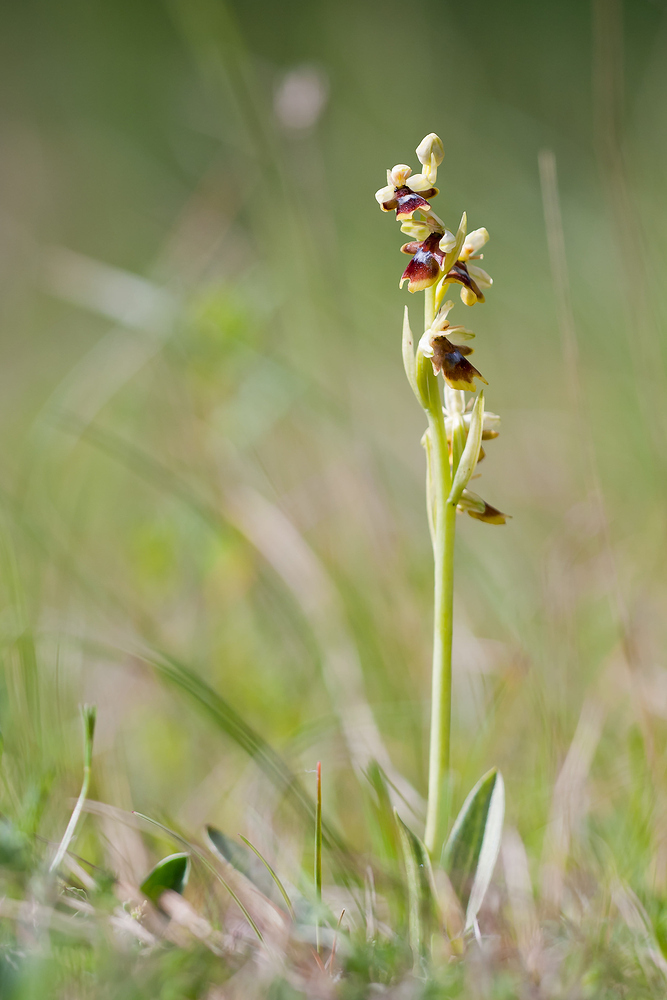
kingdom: Plantae
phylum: Tracheophyta
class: Liliopsida
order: Asparagales
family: Orchidaceae
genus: Ophrys
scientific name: Ophrys insectifera
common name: Fly orchid
